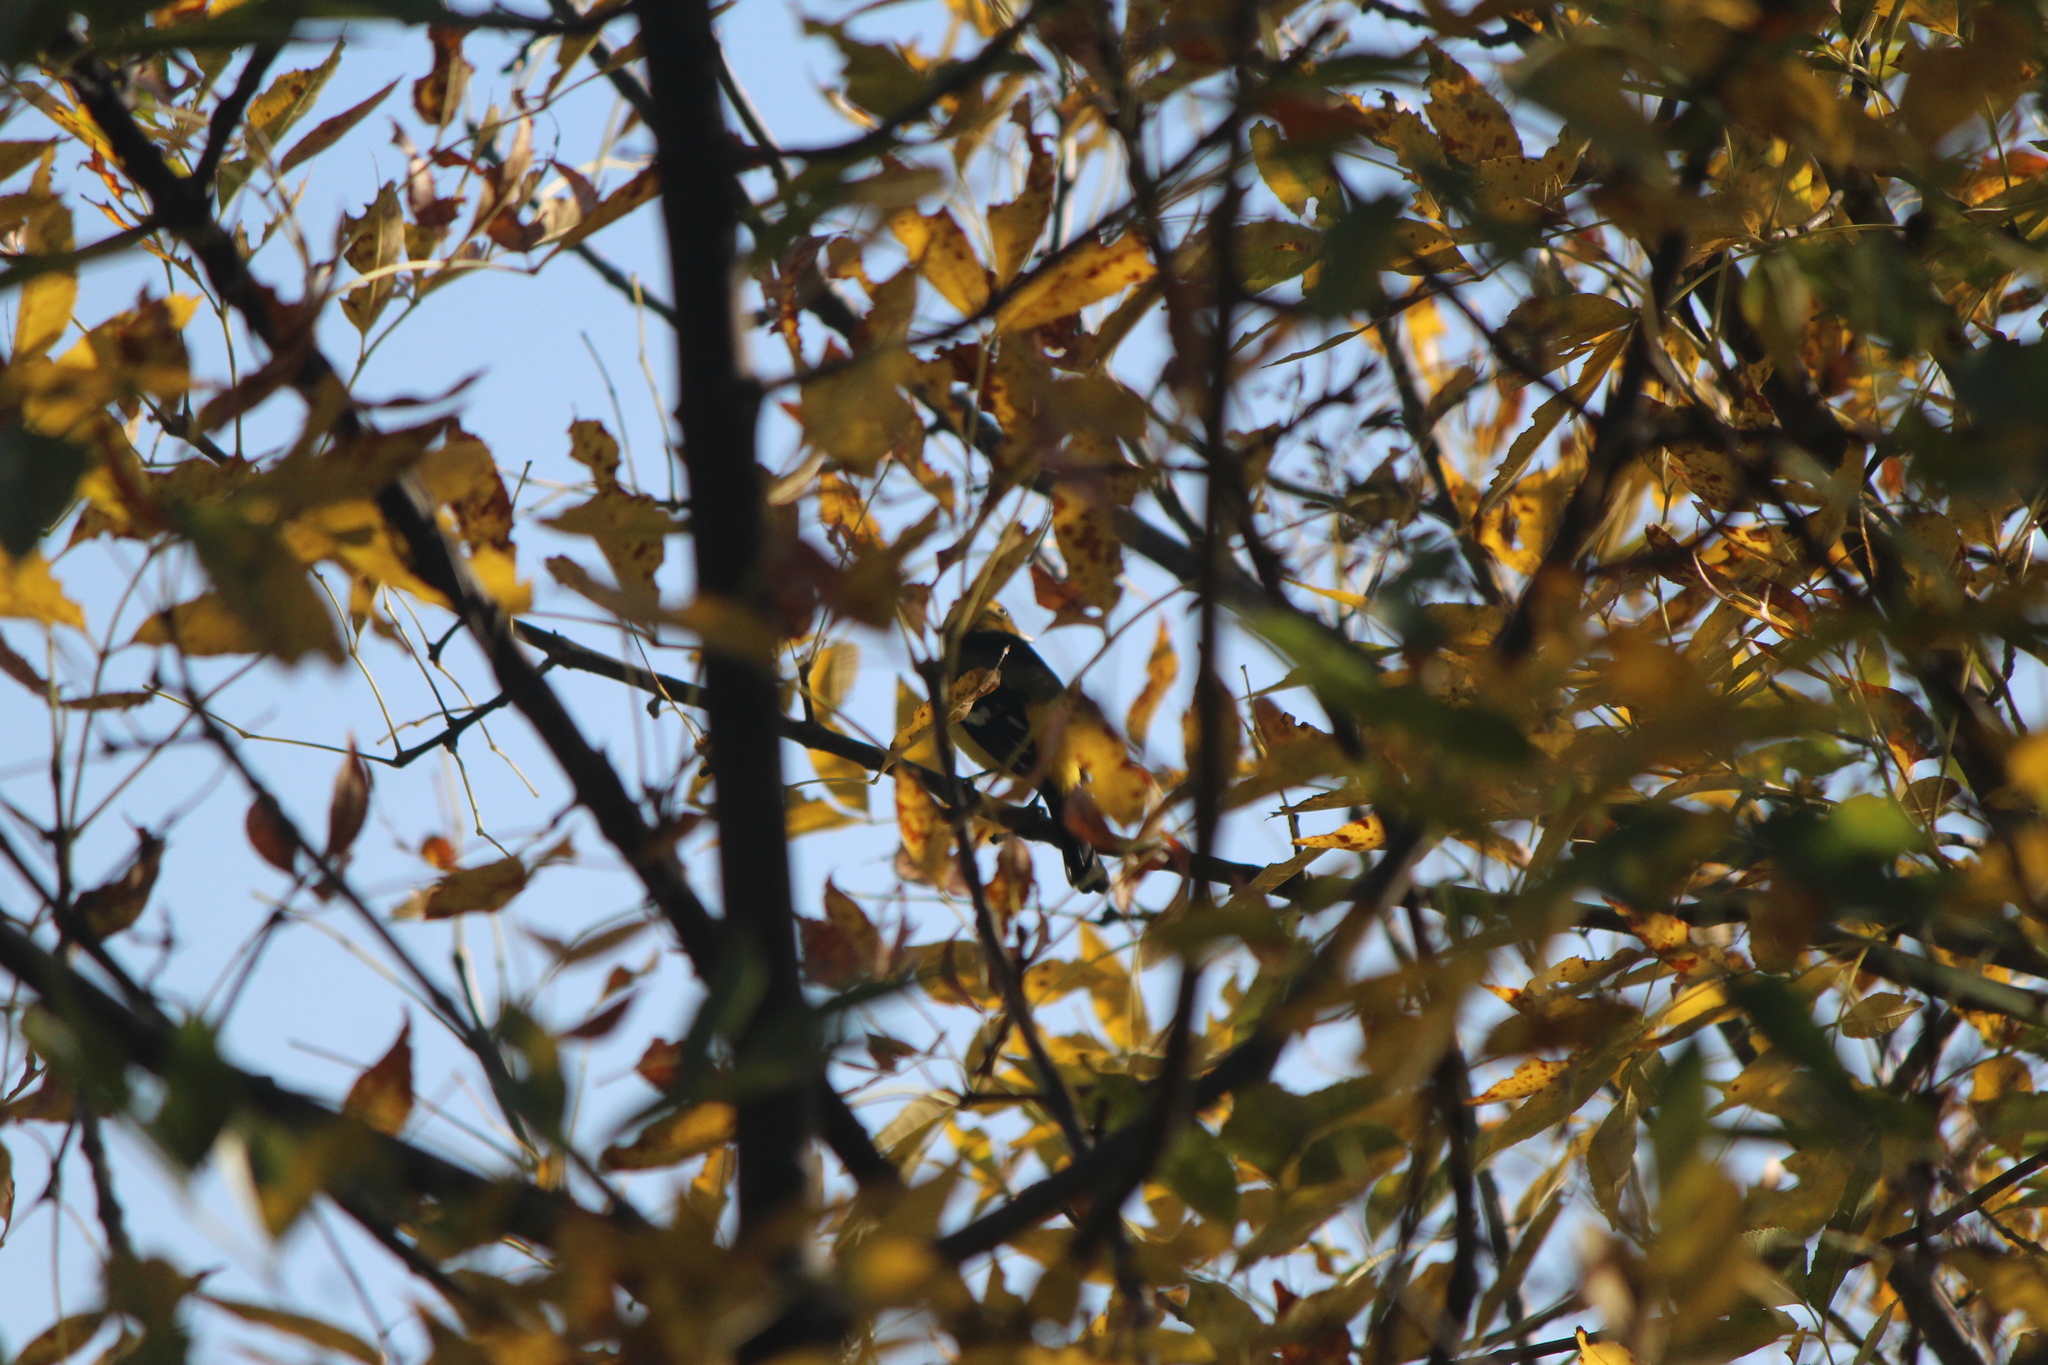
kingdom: Animalia
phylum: Chordata
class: Aves
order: Passeriformes
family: Cardinalidae
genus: Piranga
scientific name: Piranga ludoviciana
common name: Western tanager
